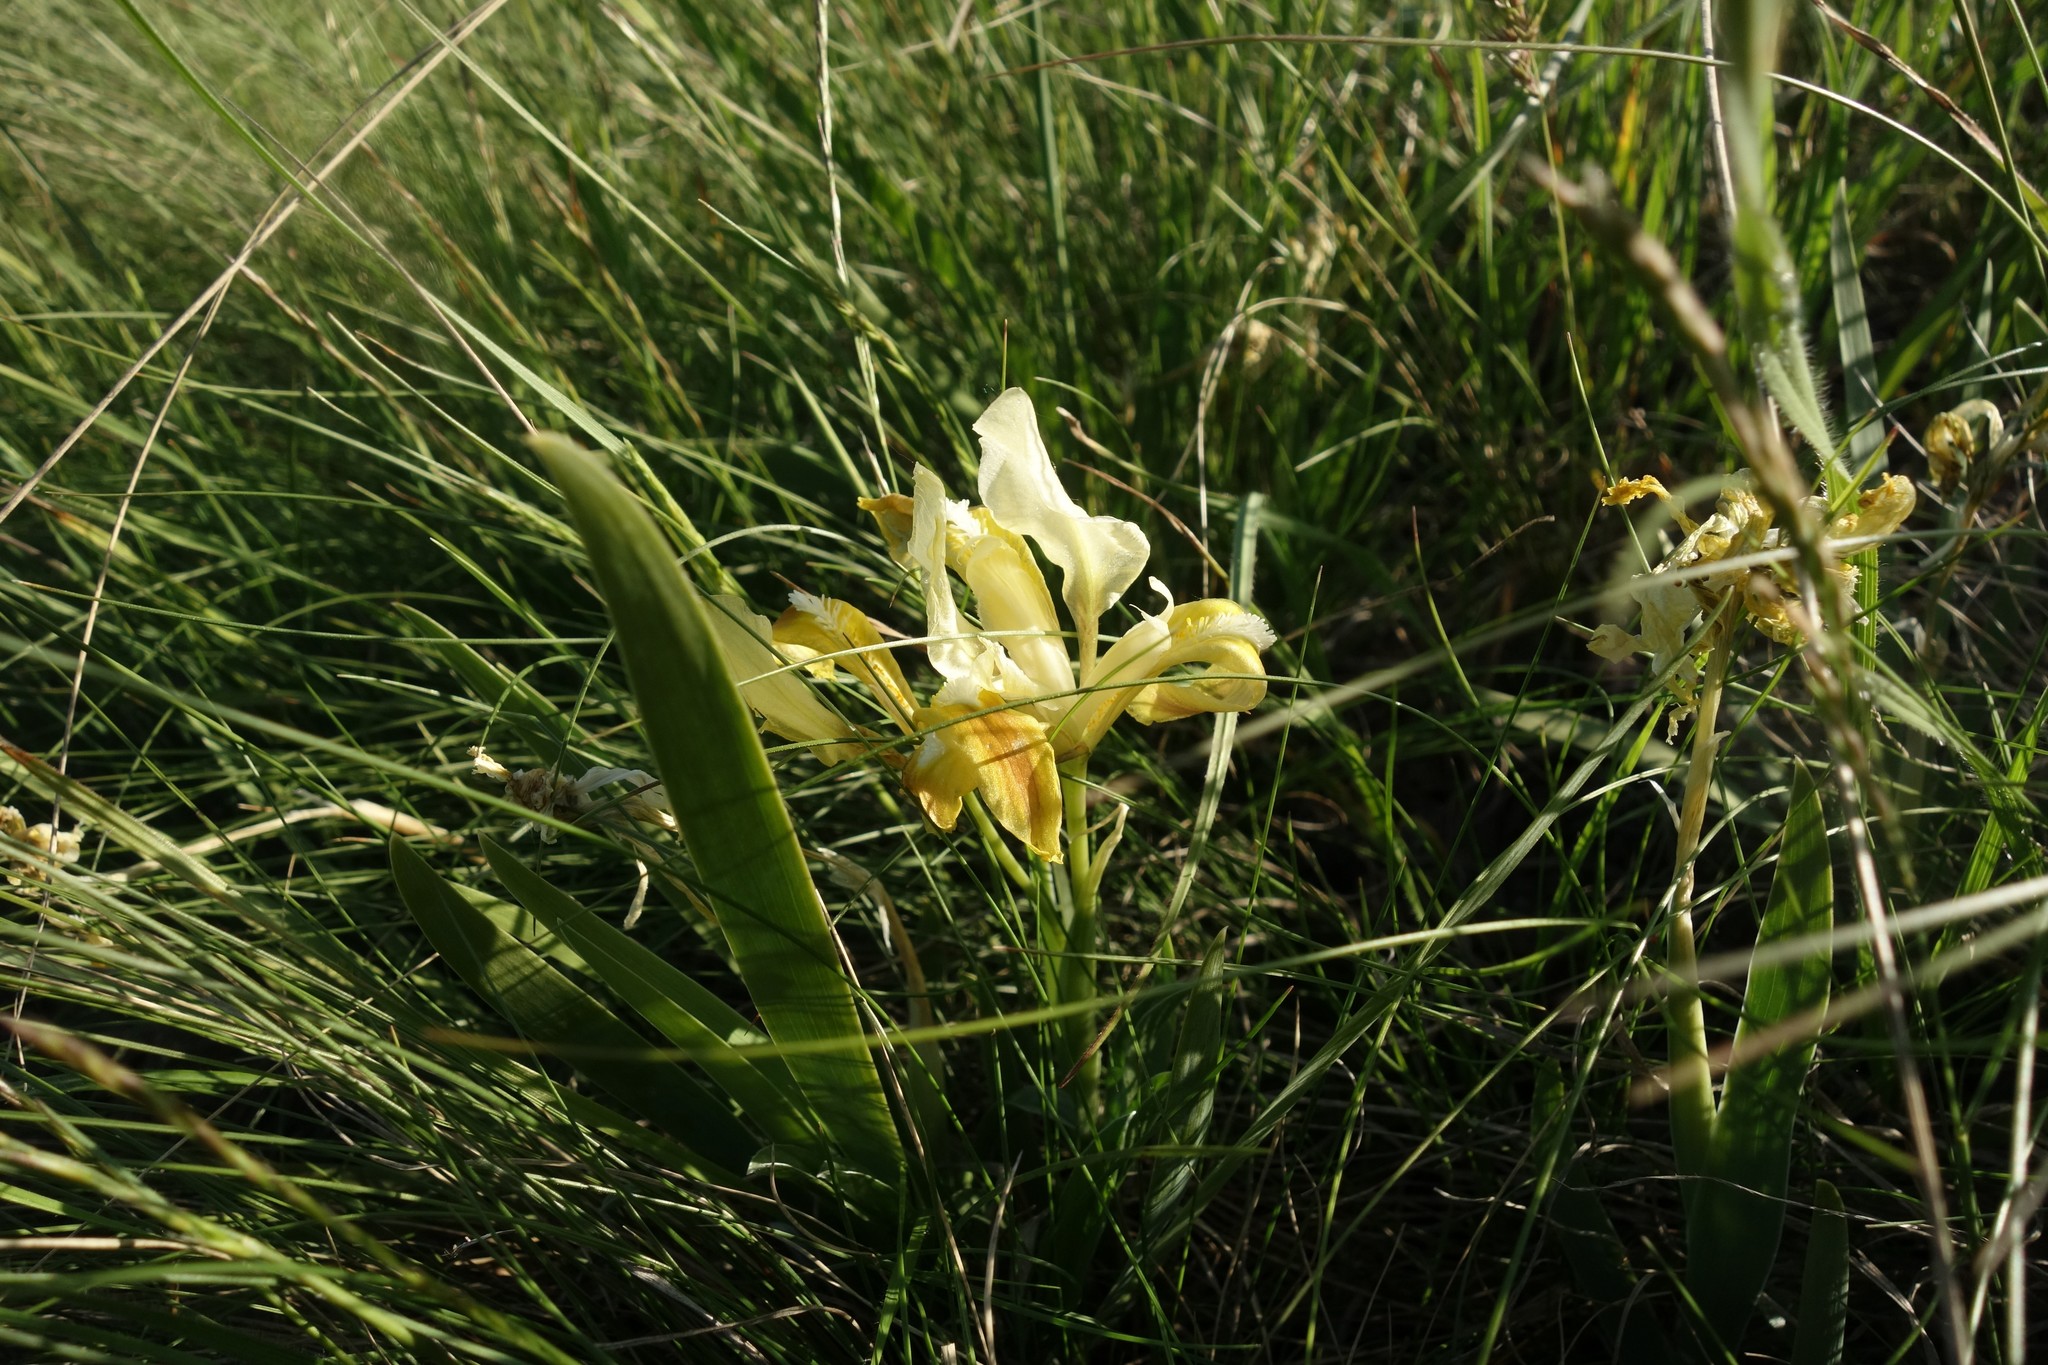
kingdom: Plantae
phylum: Tracheophyta
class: Liliopsida
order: Asparagales
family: Iridaceae
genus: Iris
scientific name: Iris pumila
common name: Dwarf iris
